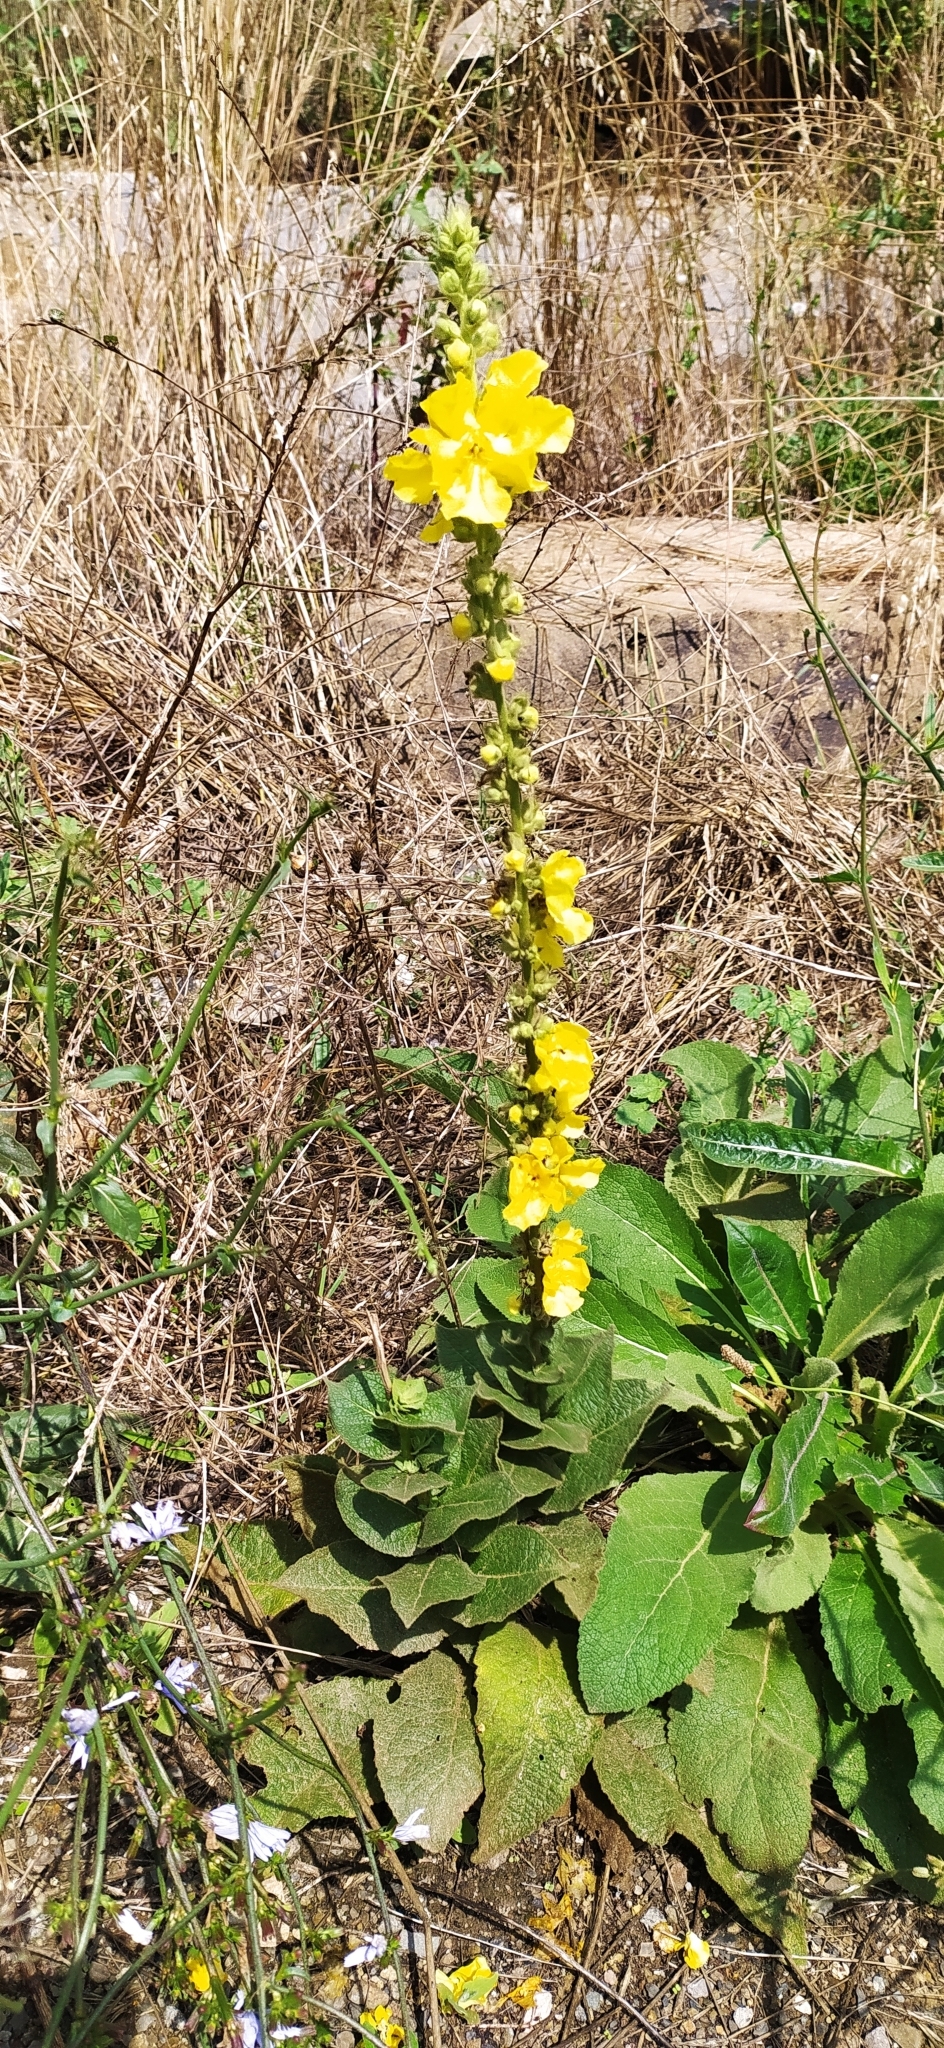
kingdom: Plantae
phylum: Tracheophyta
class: Magnoliopsida
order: Lamiales
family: Scrophulariaceae
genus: Verbascum
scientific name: Verbascum phlomoides
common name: Orange mullein
